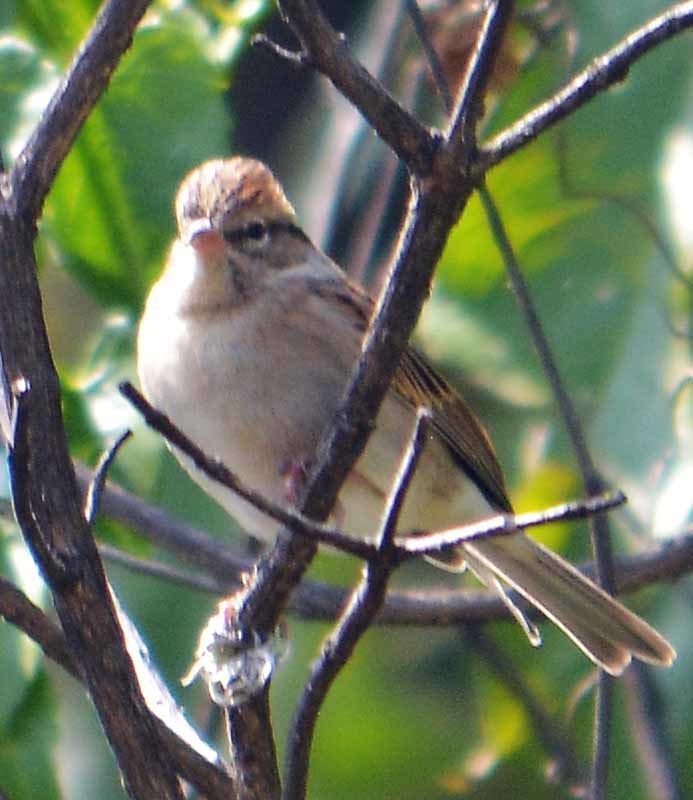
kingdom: Animalia
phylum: Chordata
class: Aves
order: Passeriformes
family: Passerellidae
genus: Spizella
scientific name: Spizella passerina
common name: Chipping sparrow
